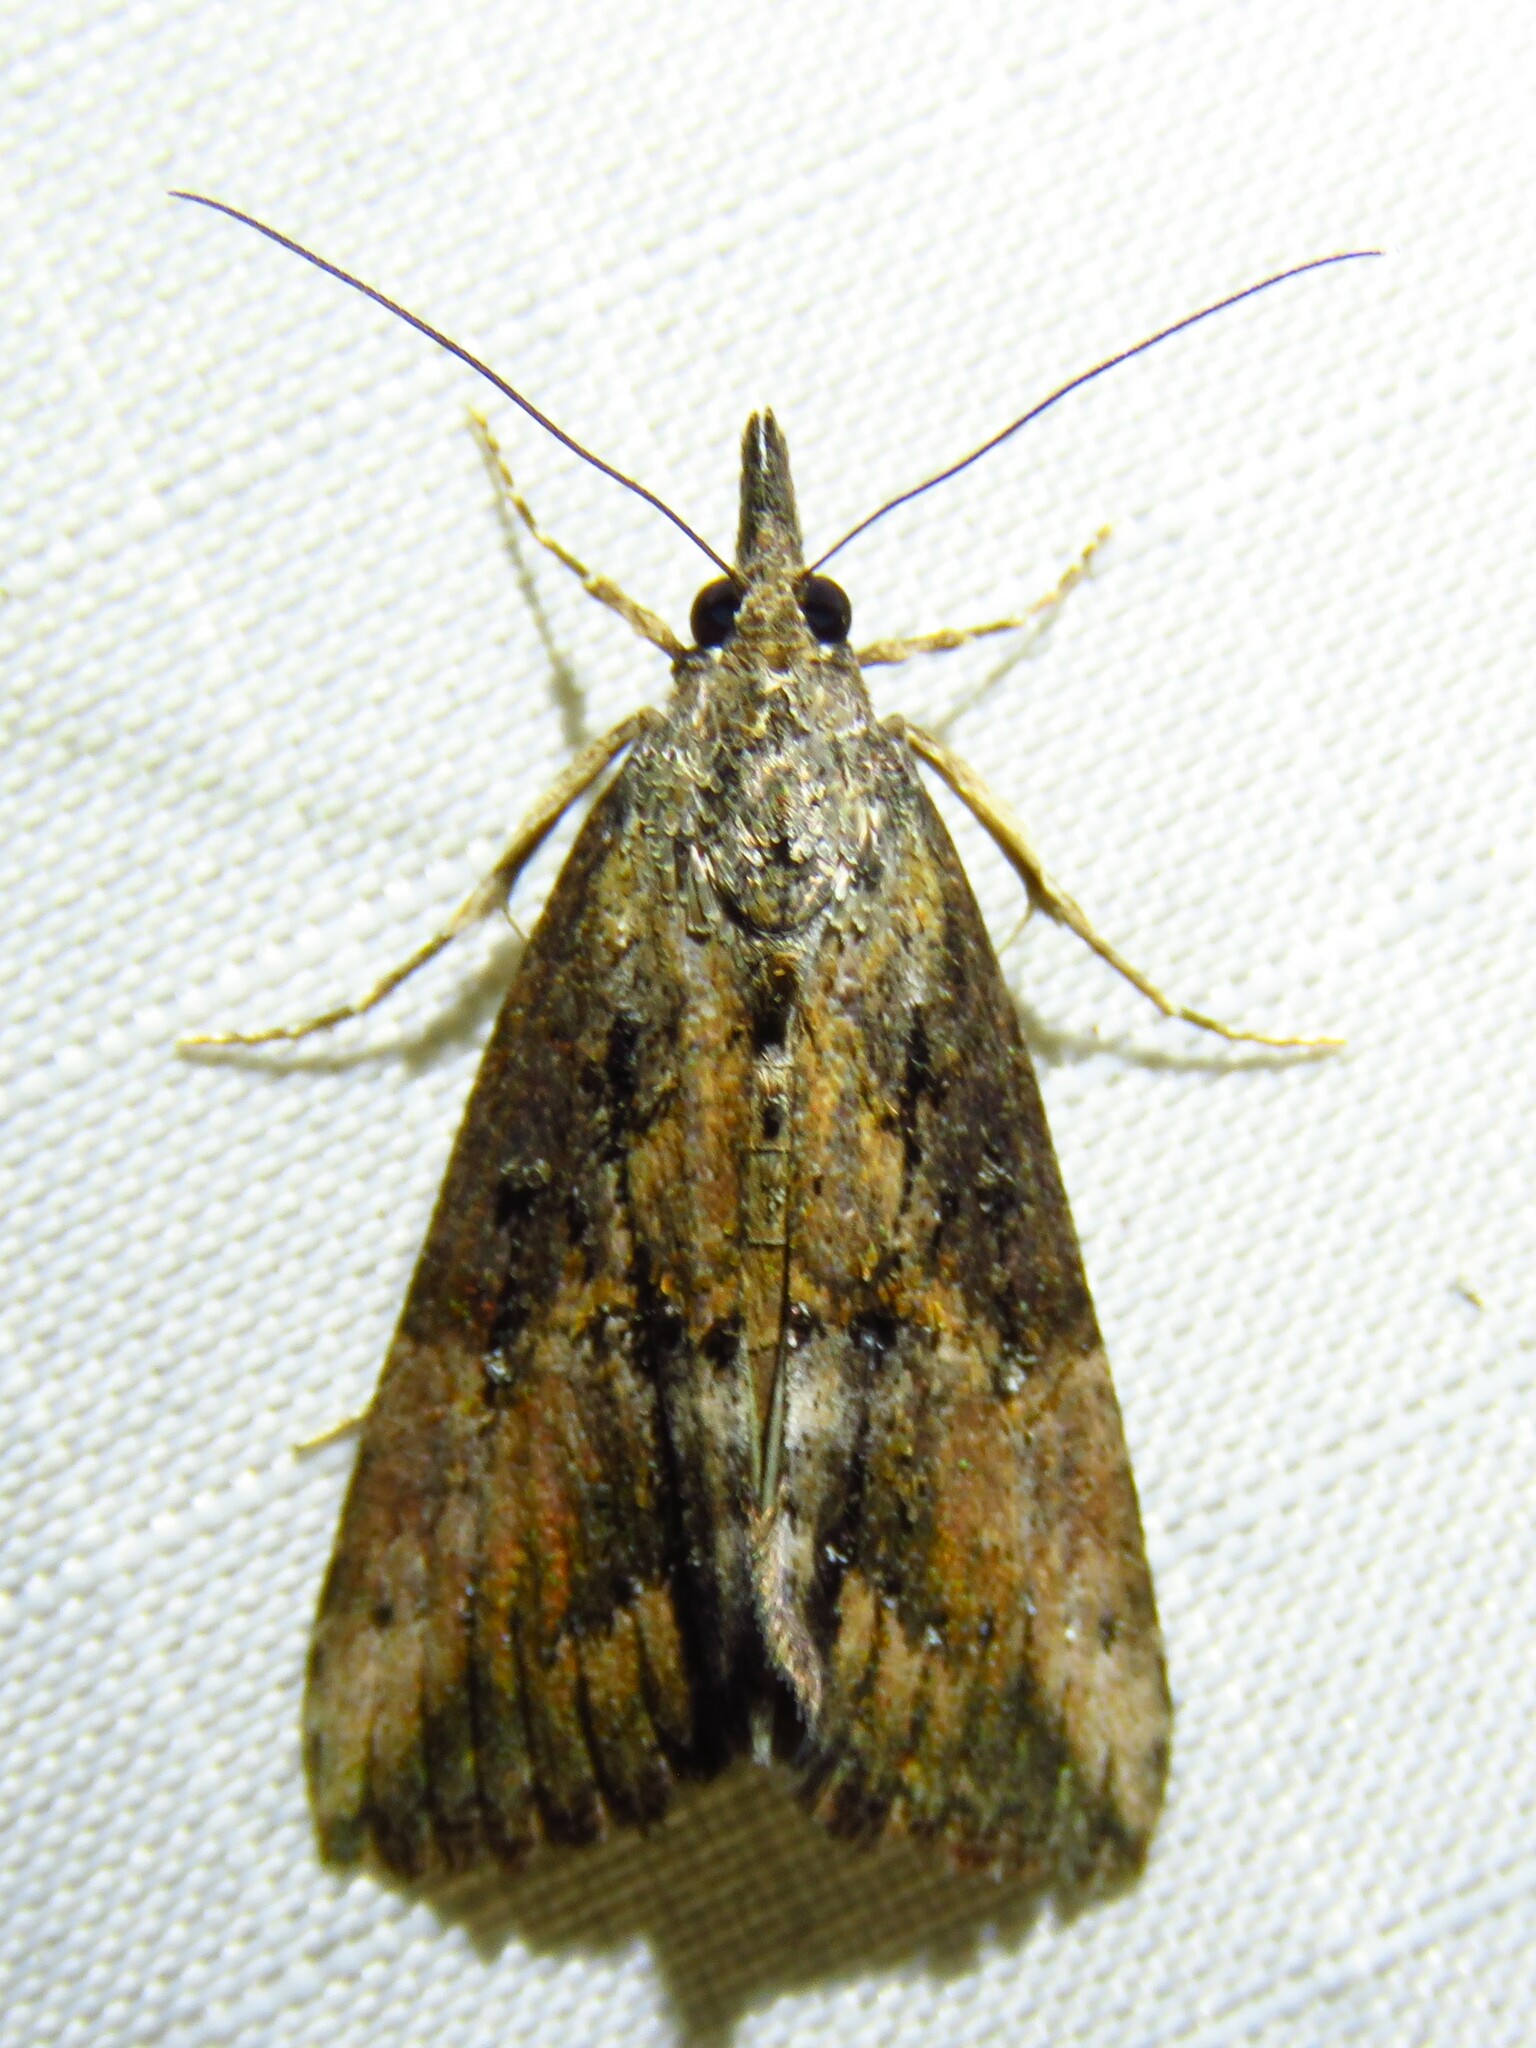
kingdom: Animalia
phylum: Arthropoda
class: Insecta
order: Lepidoptera
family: Erebidae
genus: Hypena
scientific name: Hypena scabra
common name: Green cloverworm
